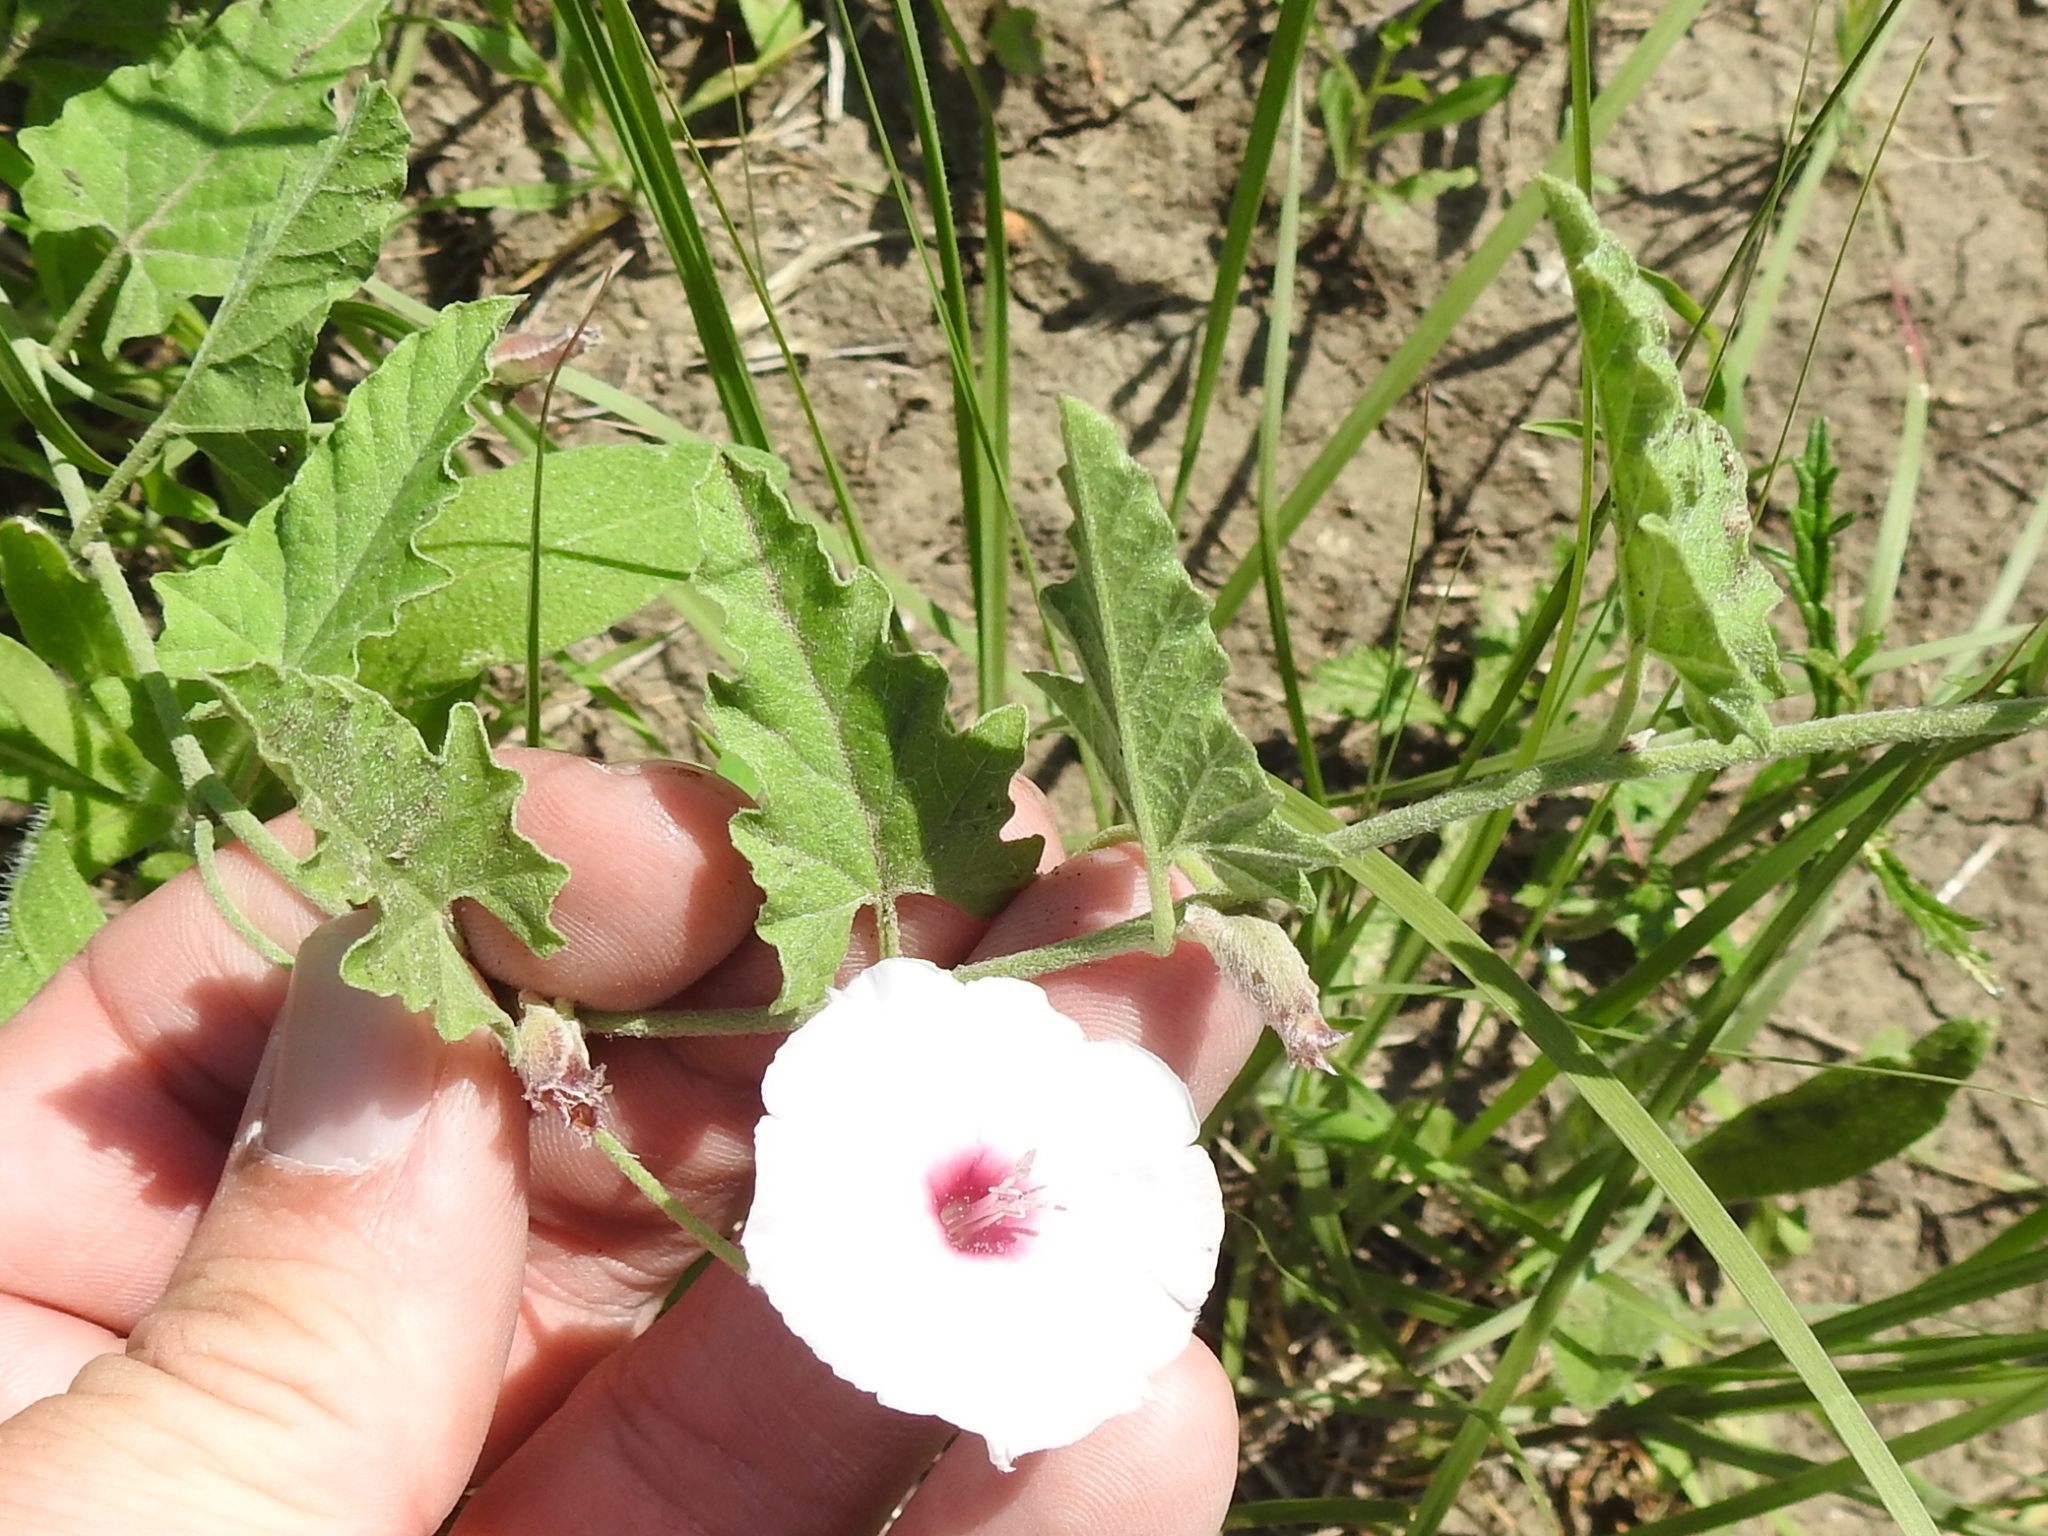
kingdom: Plantae
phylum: Tracheophyta
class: Magnoliopsida
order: Solanales
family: Convolvulaceae
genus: Convolvulus
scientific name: Convolvulus equitans
